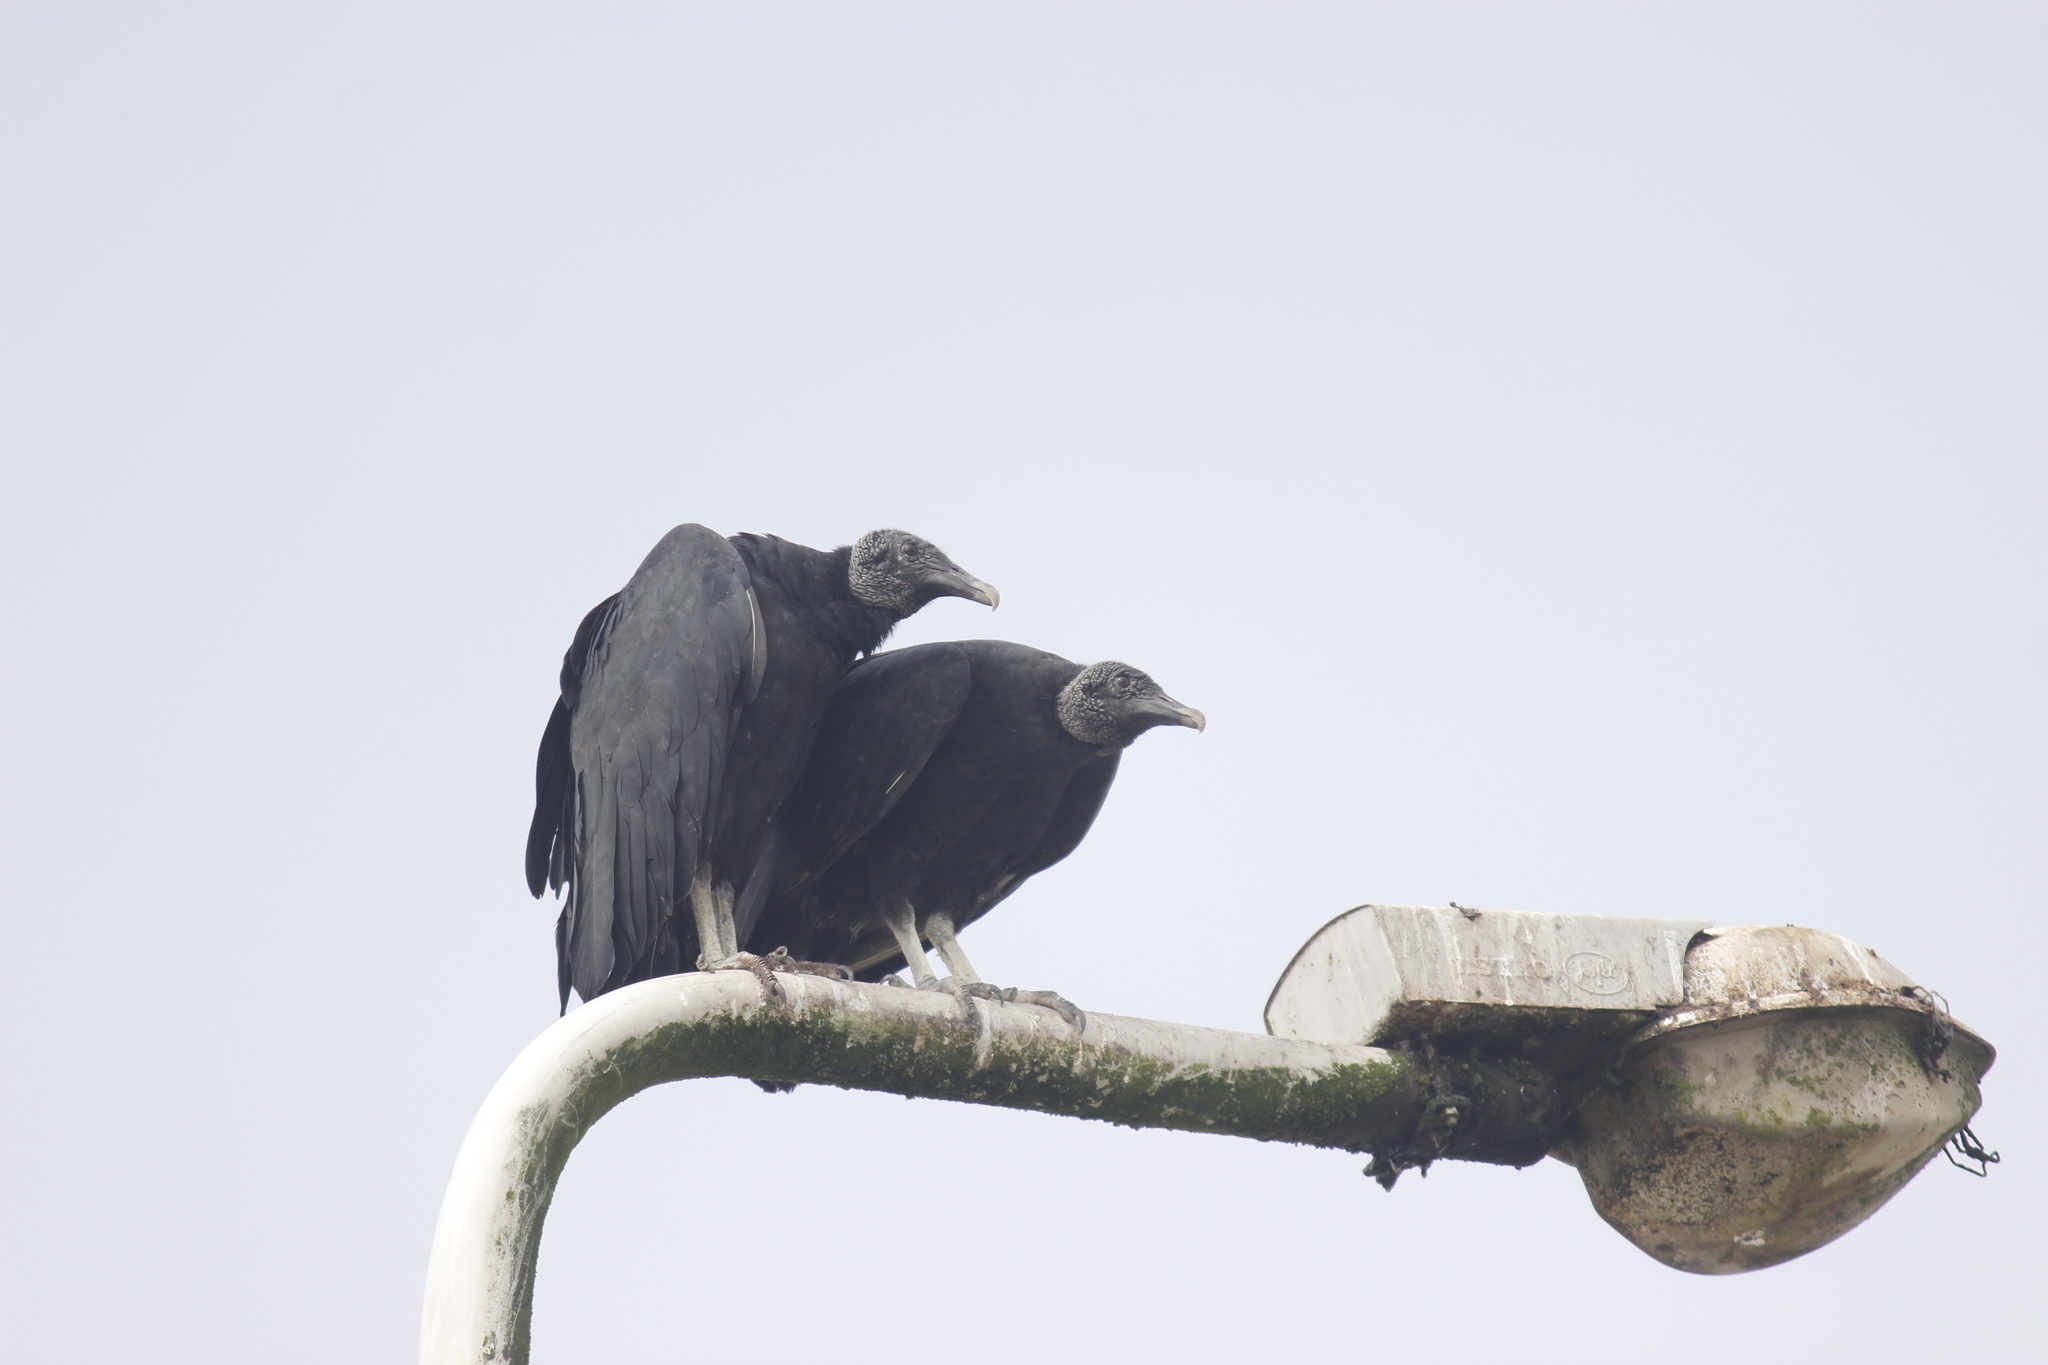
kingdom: Animalia
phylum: Chordata
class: Aves
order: Accipitriformes
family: Cathartidae
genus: Coragyps
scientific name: Coragyps atratus
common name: Black vulture
